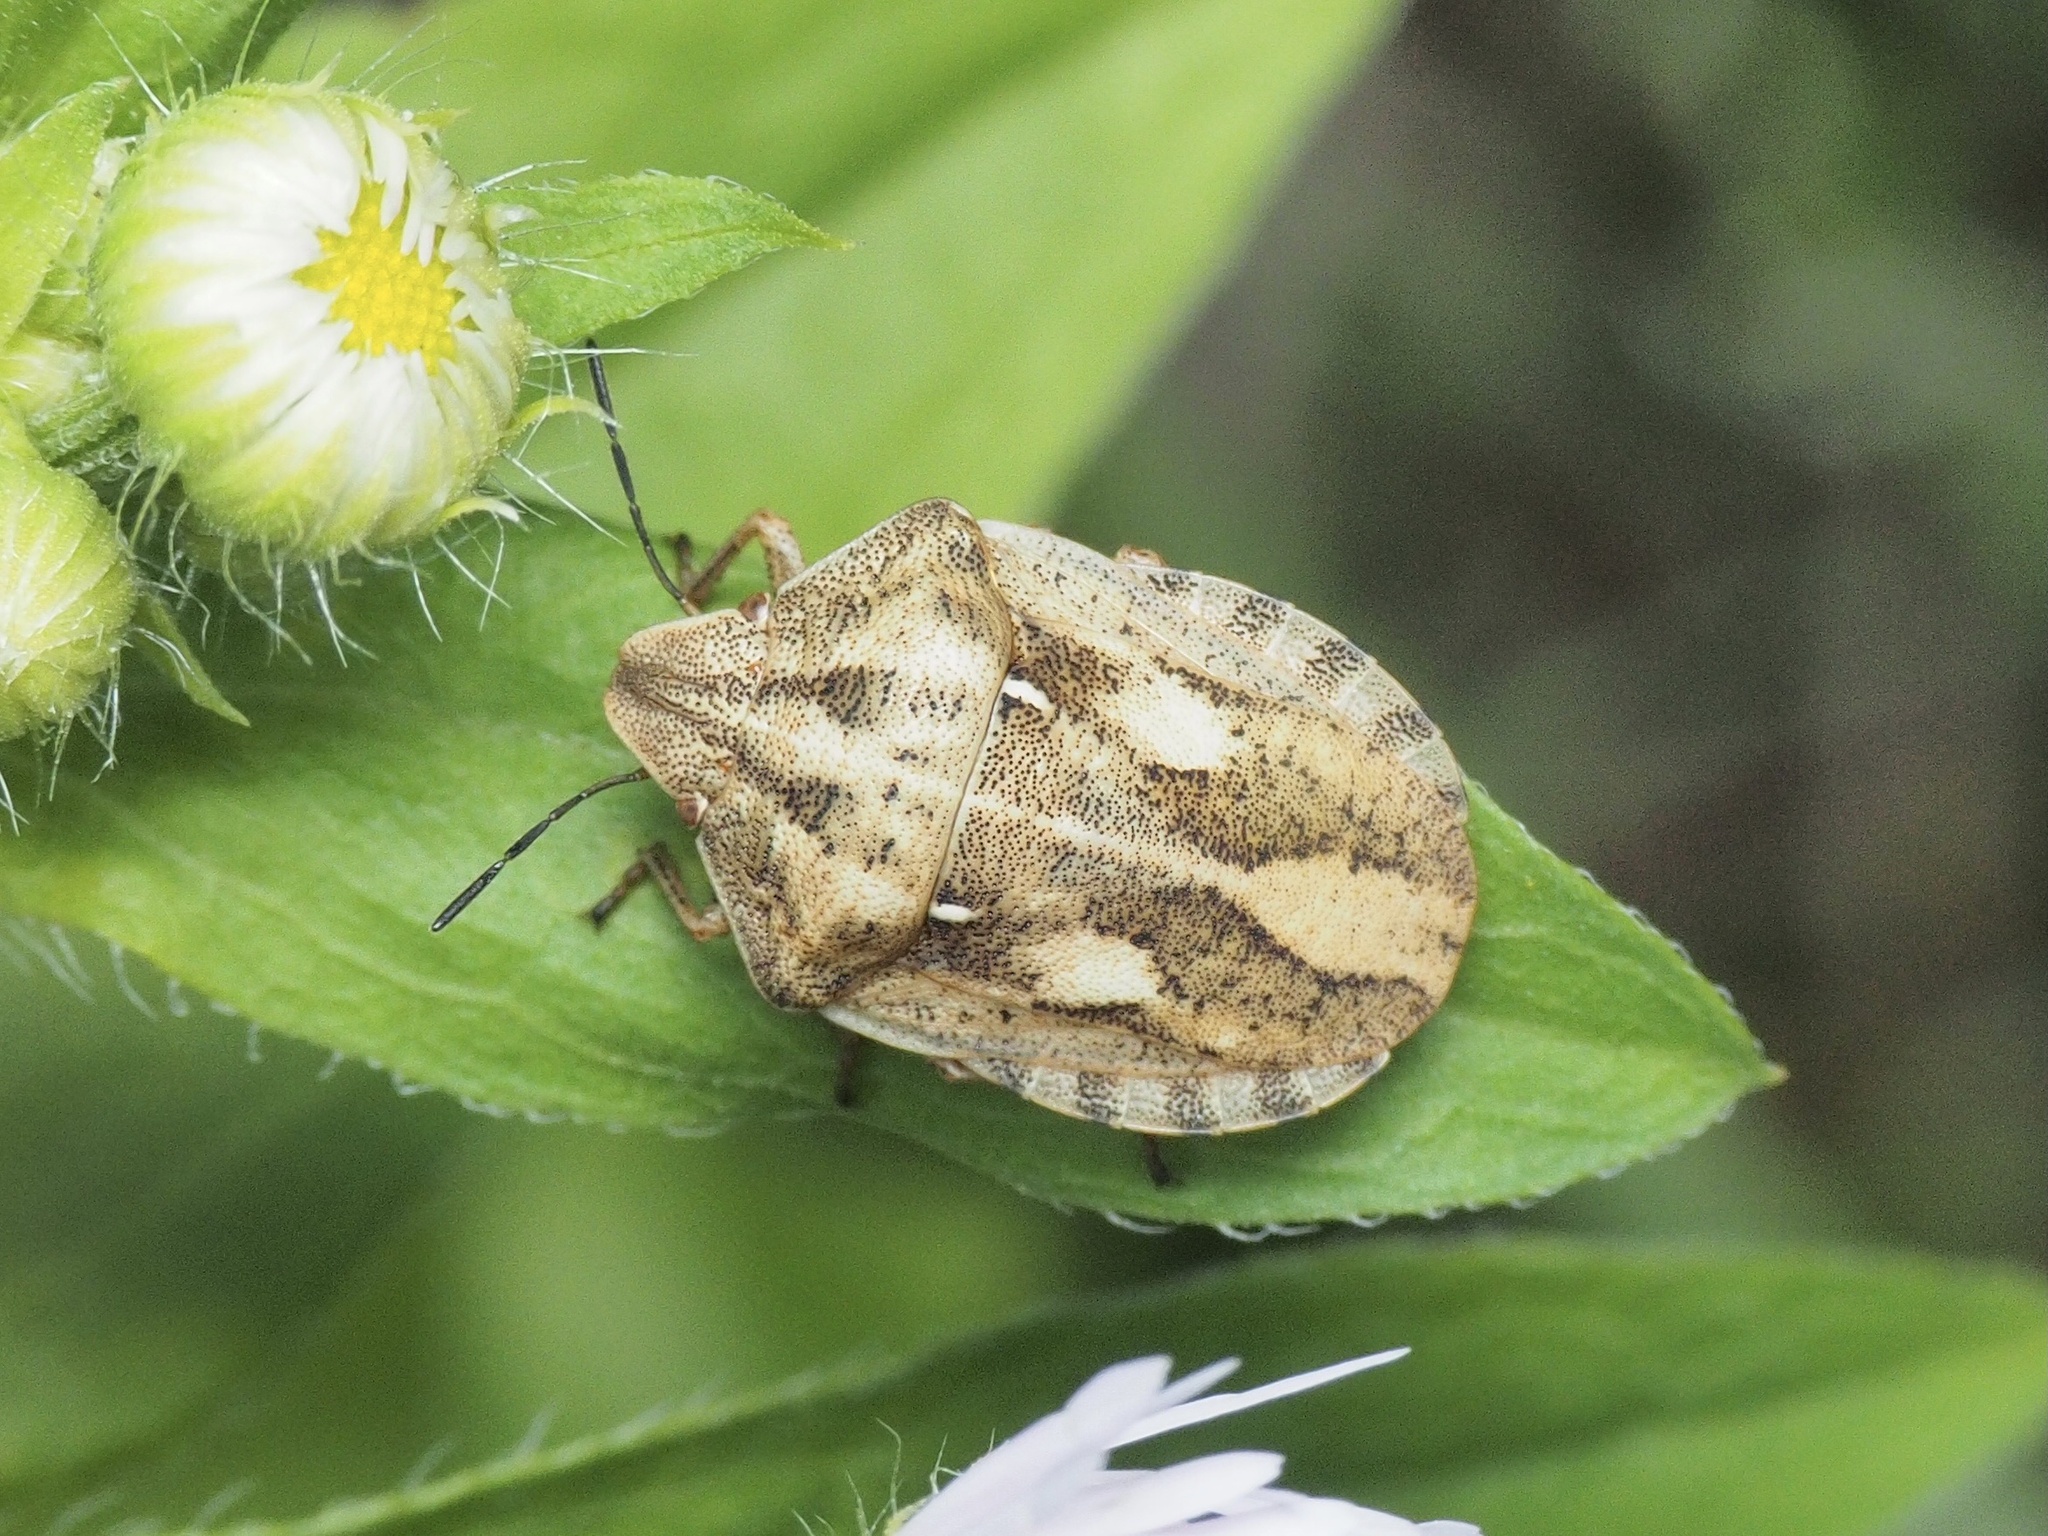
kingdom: Animalia
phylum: Arthropoda
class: Insecta
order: Hemiptera
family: Scutelleridae
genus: Eurygaster
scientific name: Eurygaster testudinaria
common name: Tortoise bug
